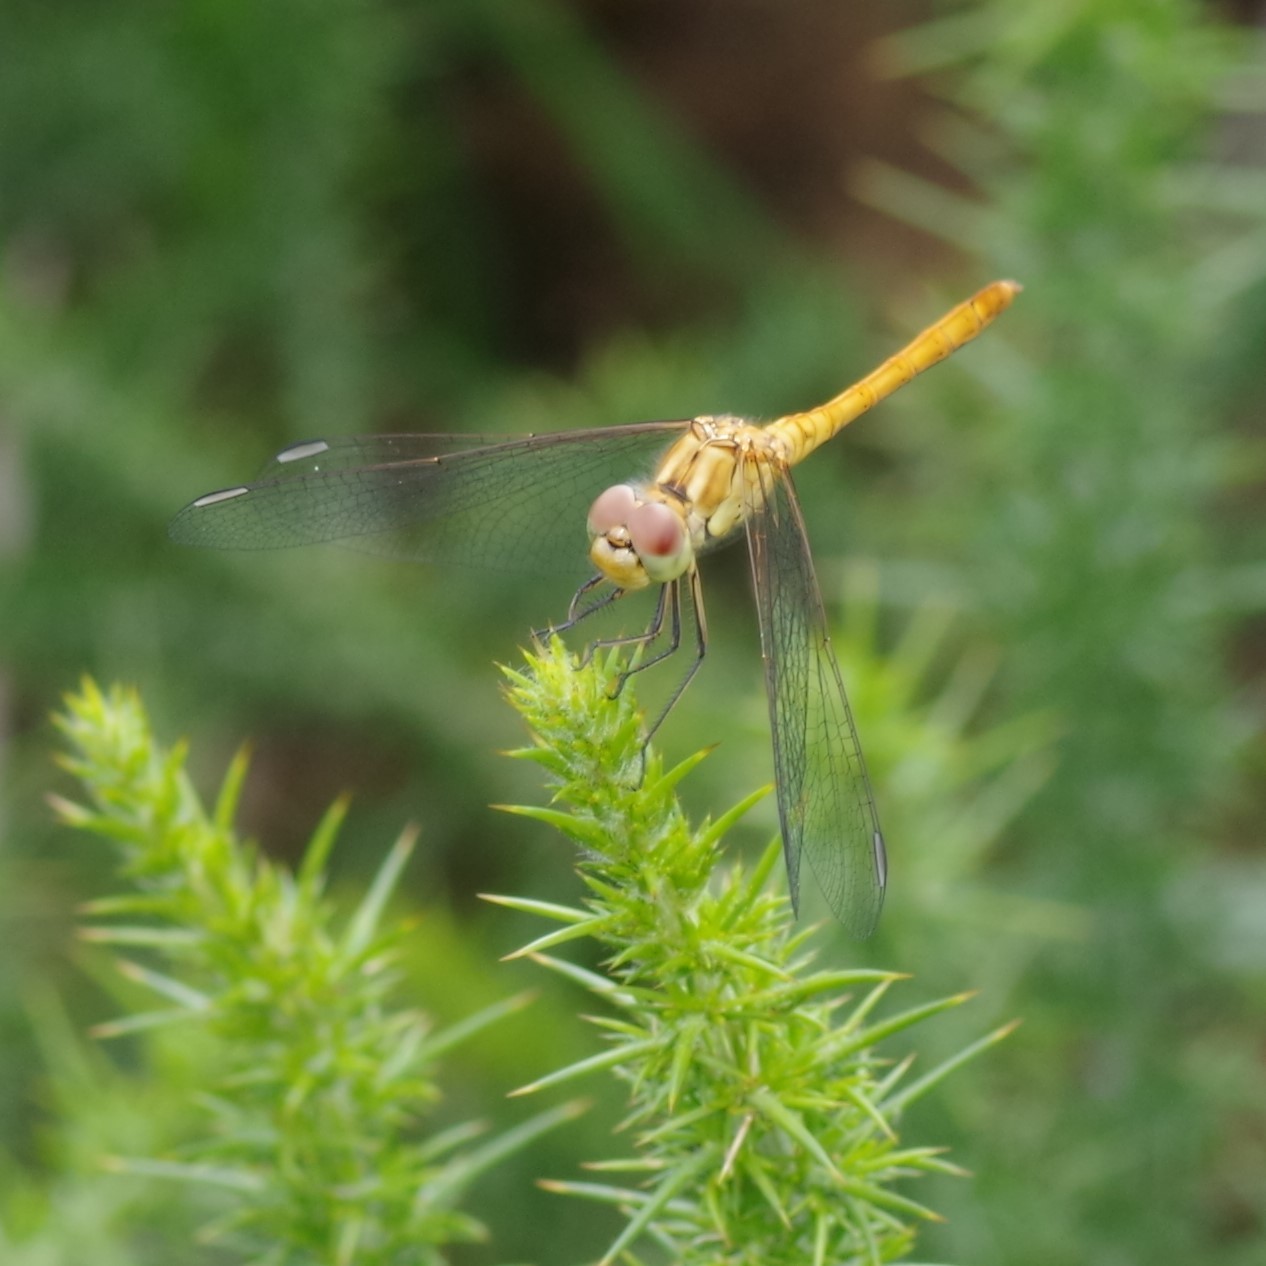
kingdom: Animalia
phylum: Arthropoda
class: Insecta
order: Odonata
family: Libellulidae
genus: Sympetrum
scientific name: Sympetrum meridionale
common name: Southern darter
